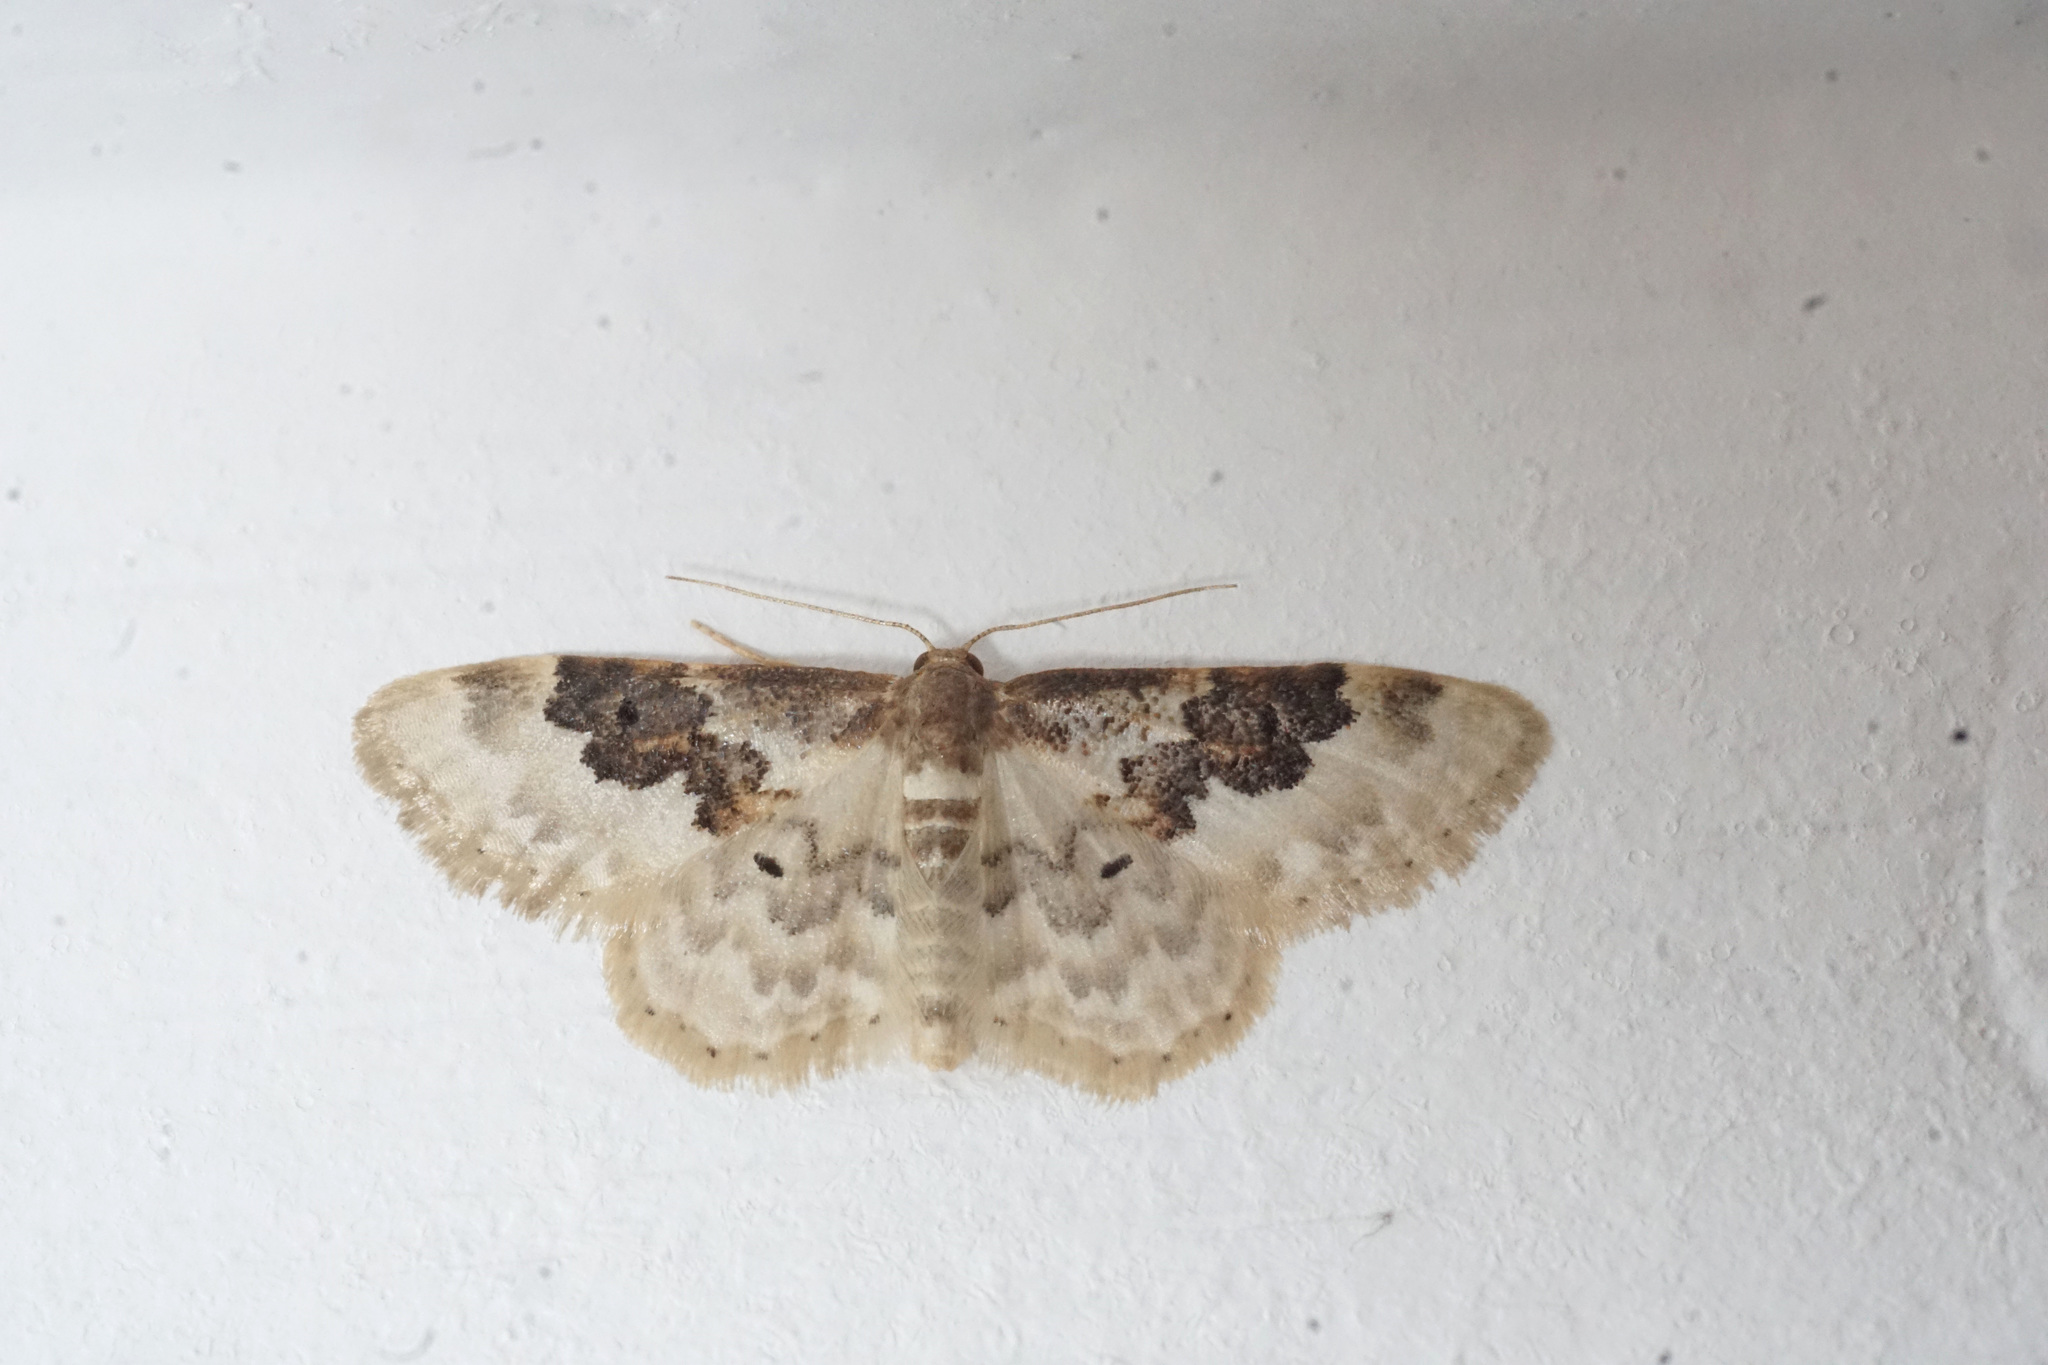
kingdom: Animalia
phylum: Arthropoda
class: Insecta
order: Lepidoptera
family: Geometridae
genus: Idaea
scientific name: Idaea rusticata
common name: Least carpet
